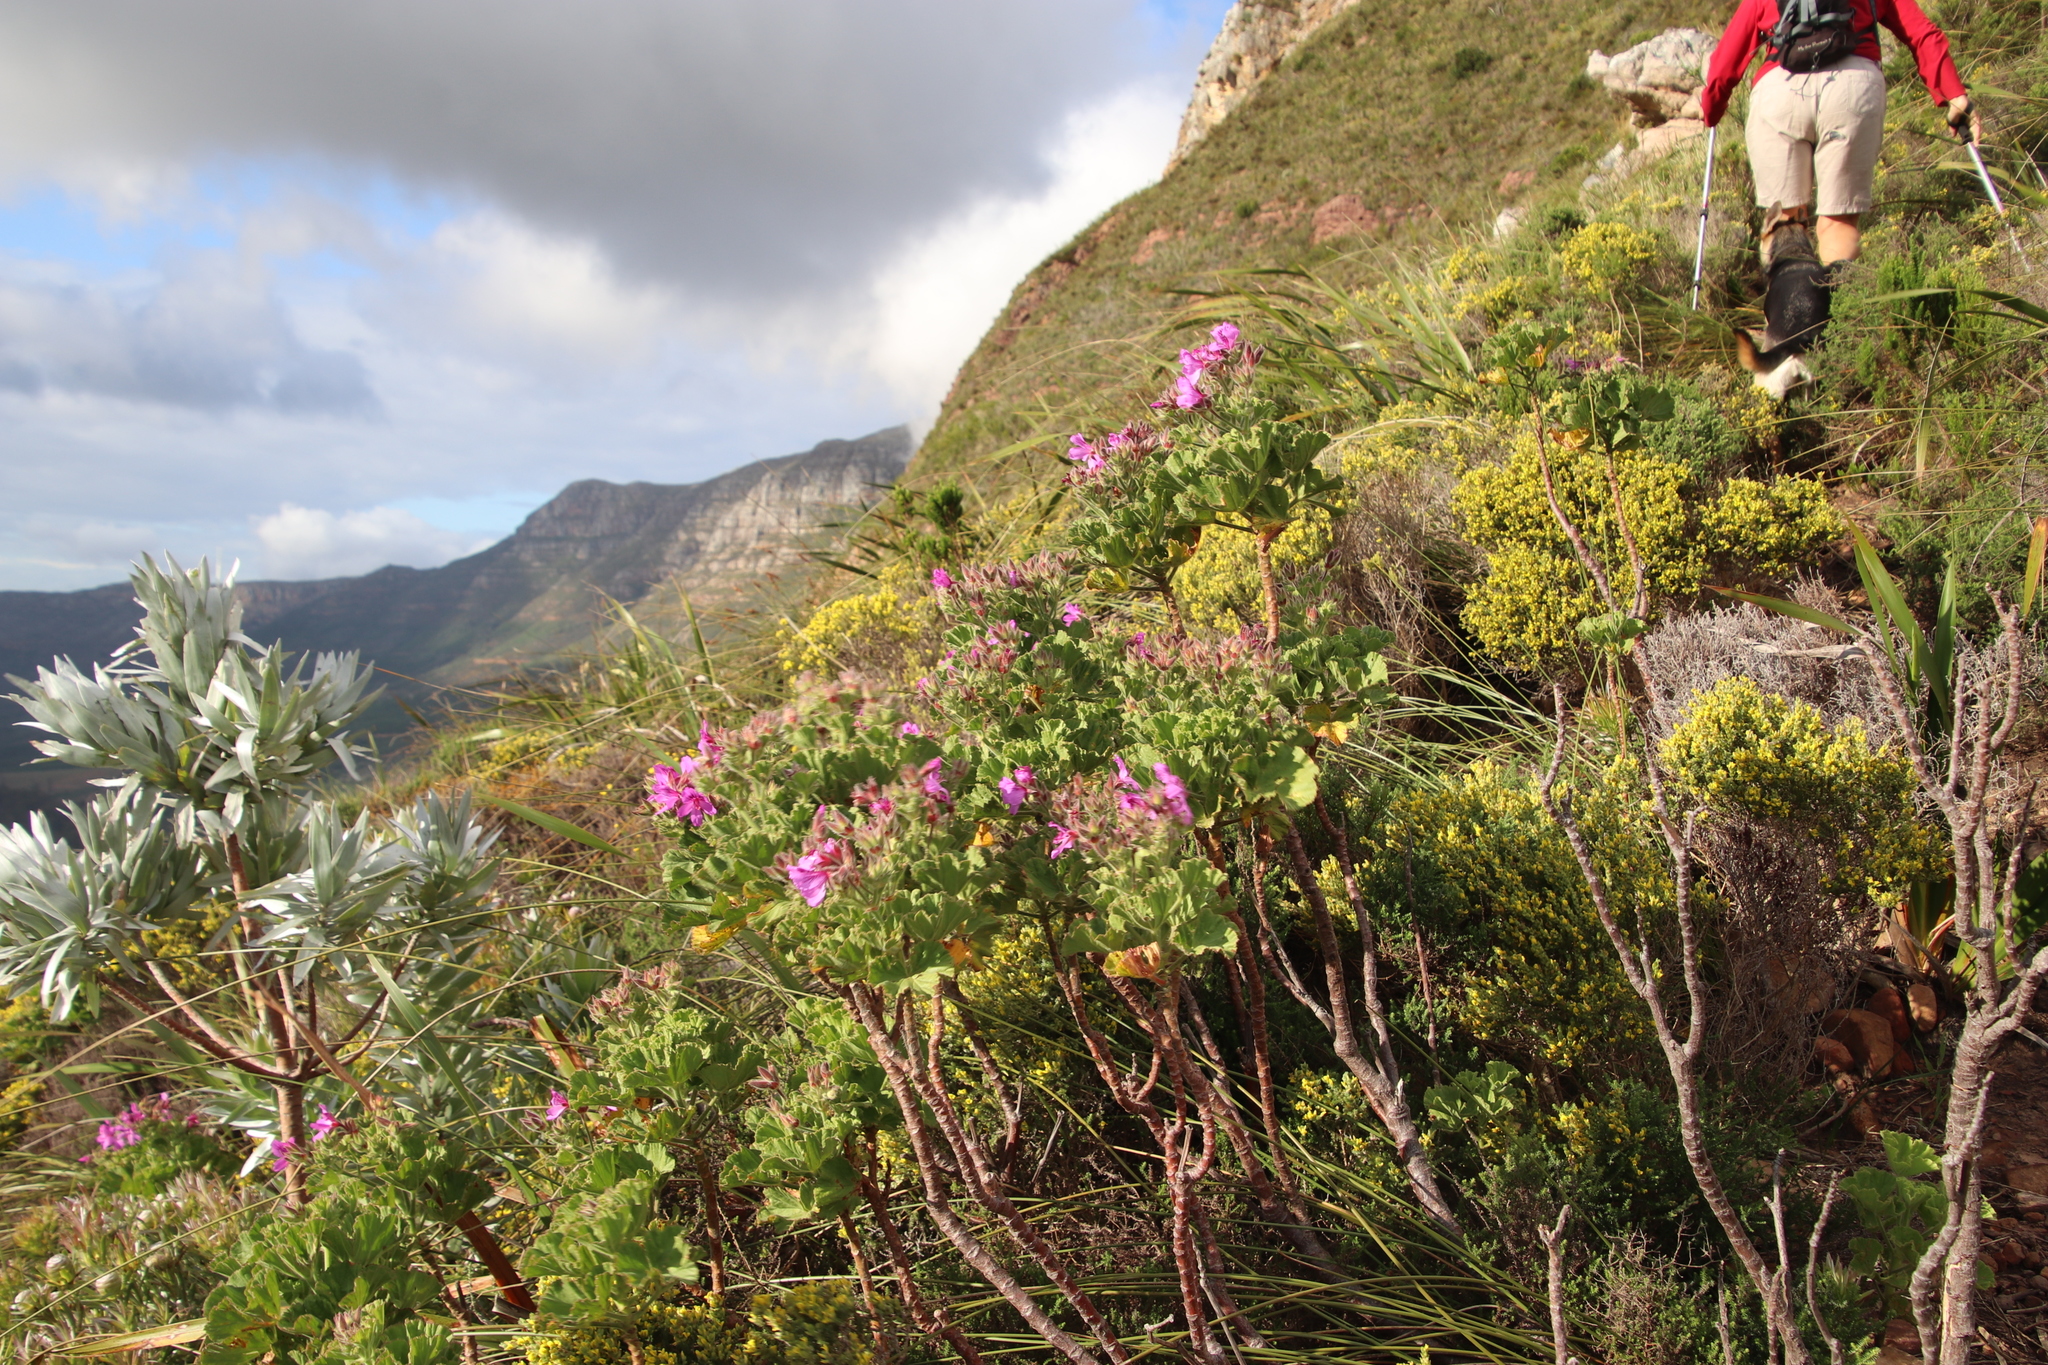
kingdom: Plantae
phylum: Tracheophyta
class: Magnoliopsida
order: Geraniales
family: Geraniaceae
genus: Pelargonium
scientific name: Pelargonium cucullatum
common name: Tree pelargonium
